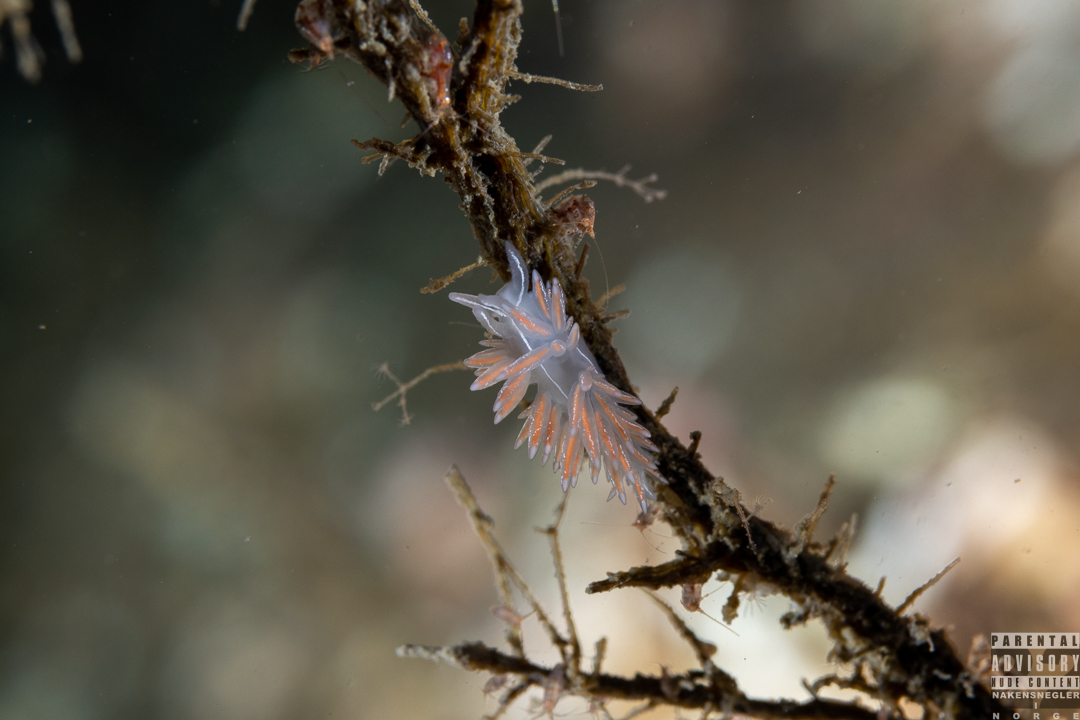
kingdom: Animalia
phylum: Mollusca
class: Gastropoda
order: Nudibranchia
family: Coryphellidae
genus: Coryphella
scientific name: Coryphella chriskaugei
